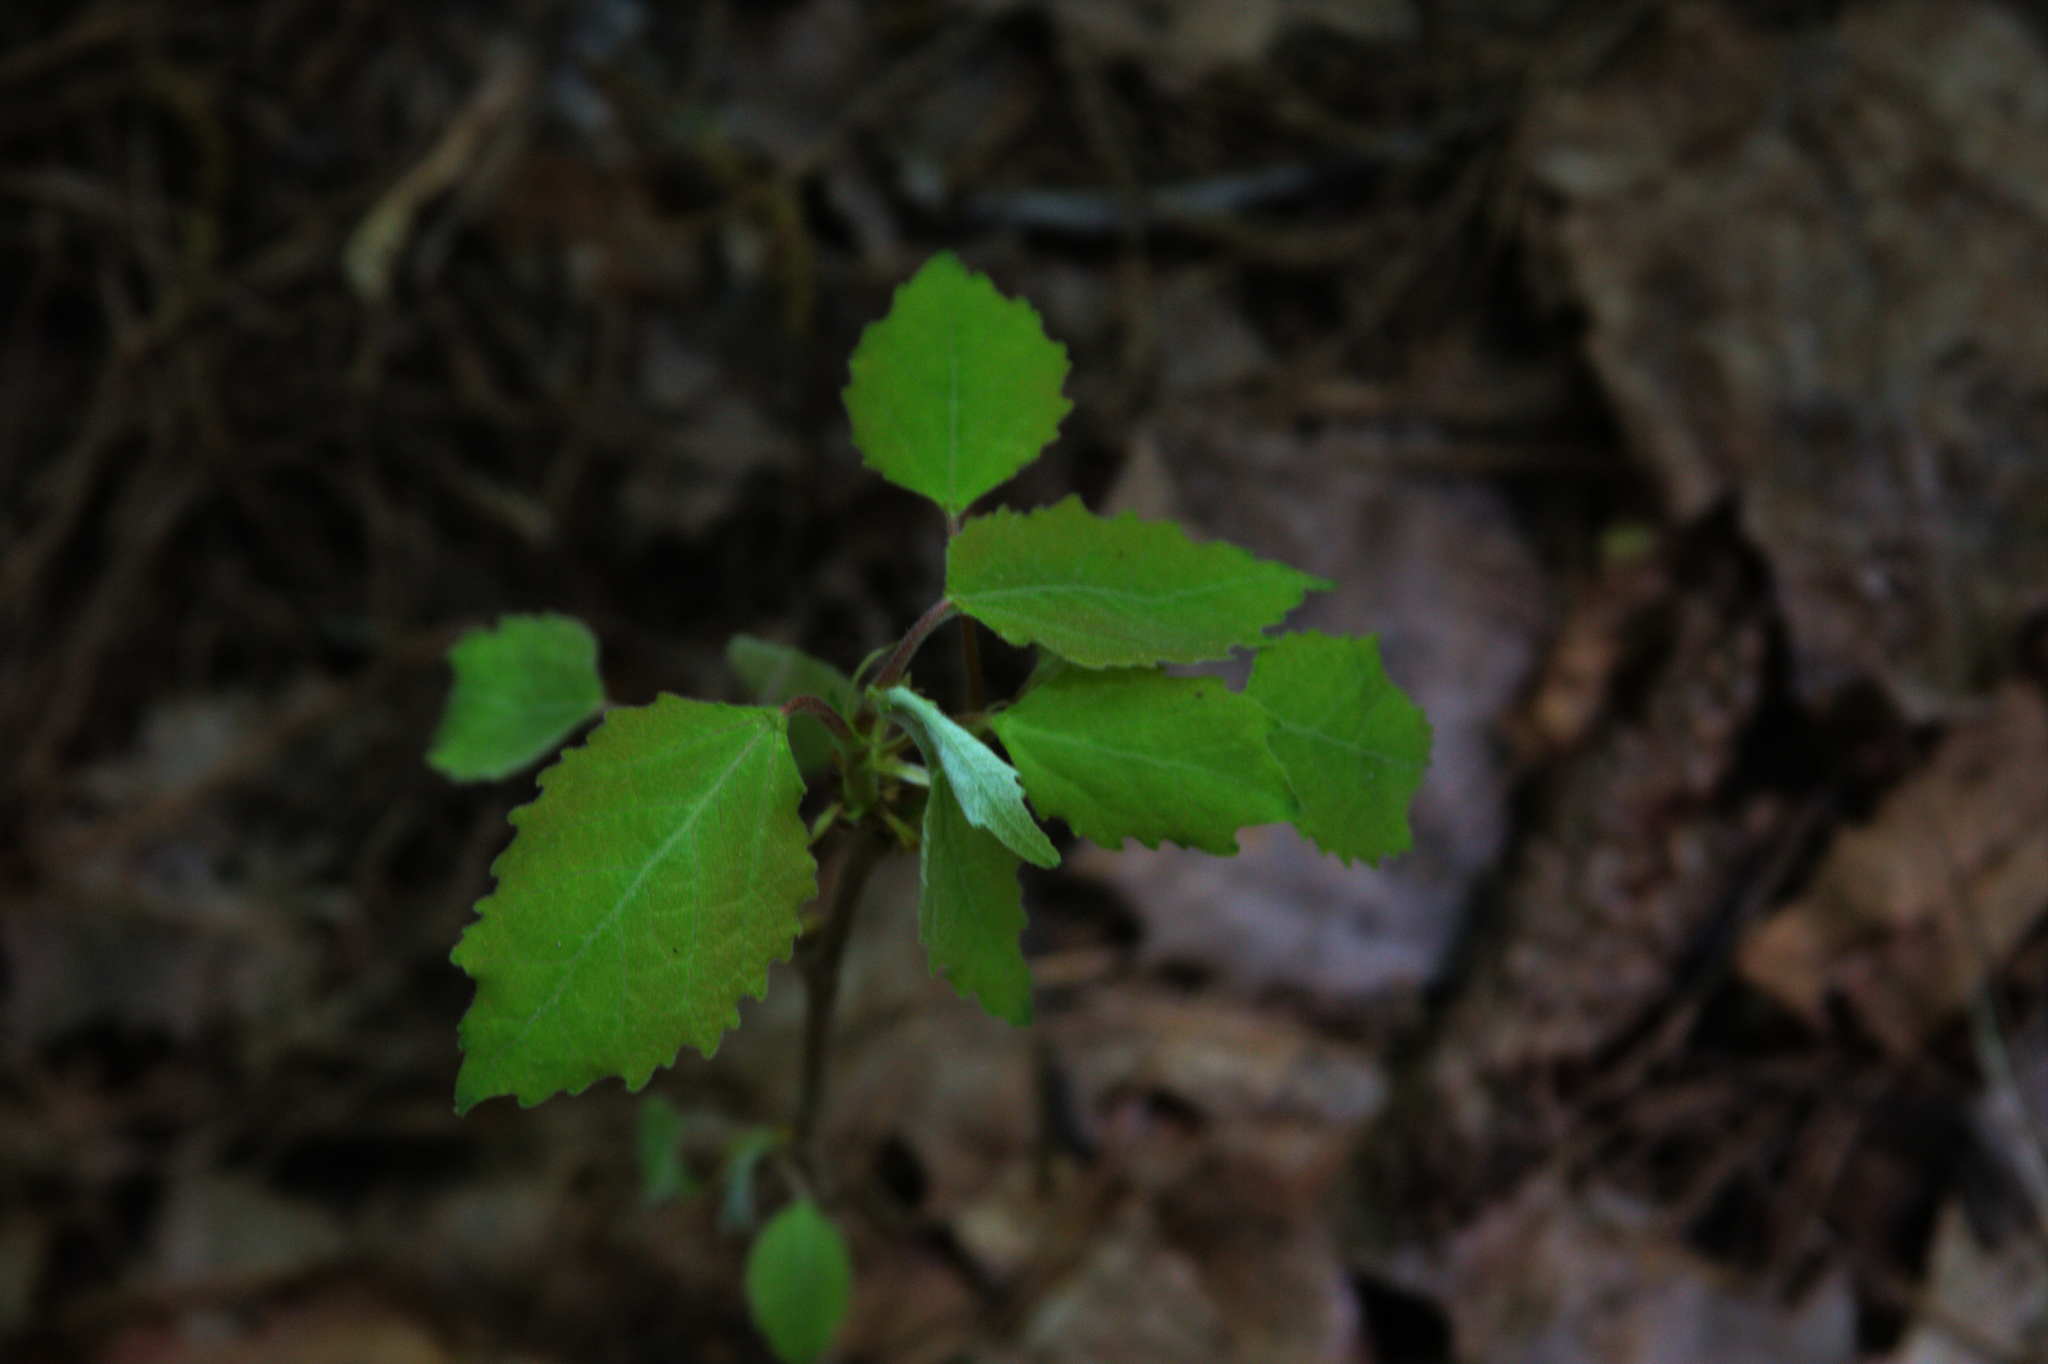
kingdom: Plantae
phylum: Tracheophyta
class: Magnoliopsida
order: Malpighiales
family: Salicaceae
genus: Populus
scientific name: Populus grandidentata
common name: Bigtooth aspen
